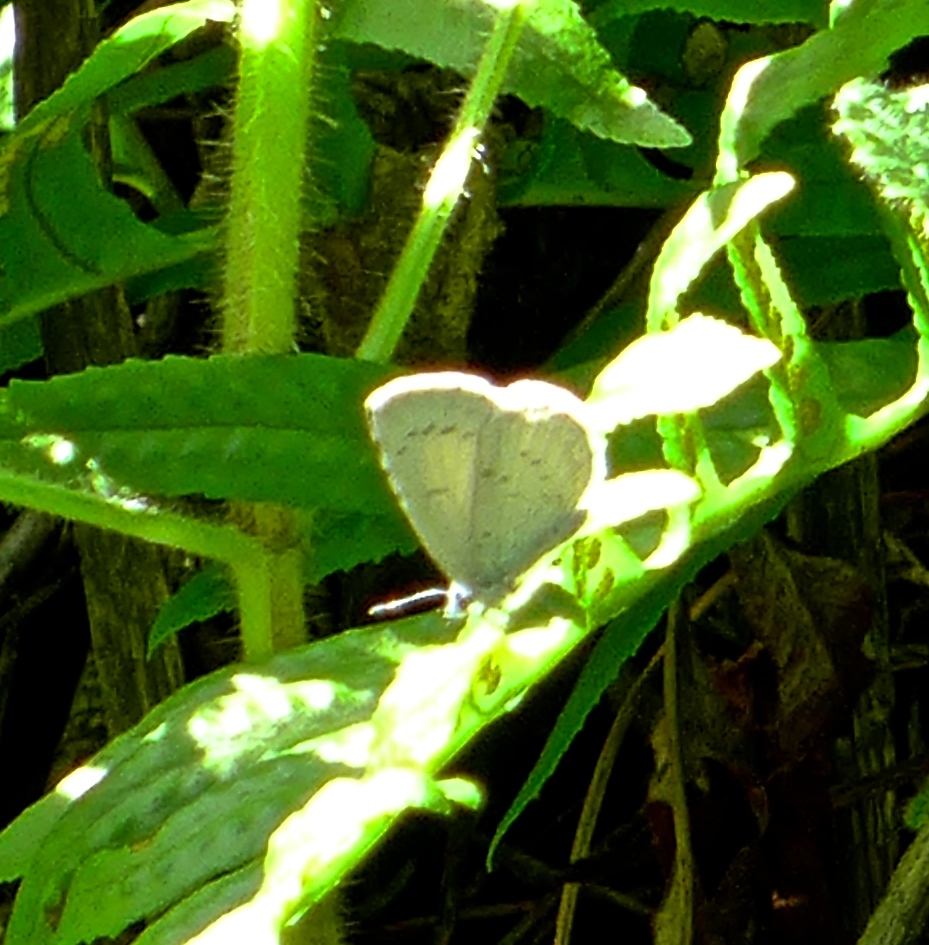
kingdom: Animalia
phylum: Arthropoda
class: Insecta
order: Lepidoptera
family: Lycaenidae
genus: Celastrina
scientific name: Celastrina ladon
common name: Spring azure
